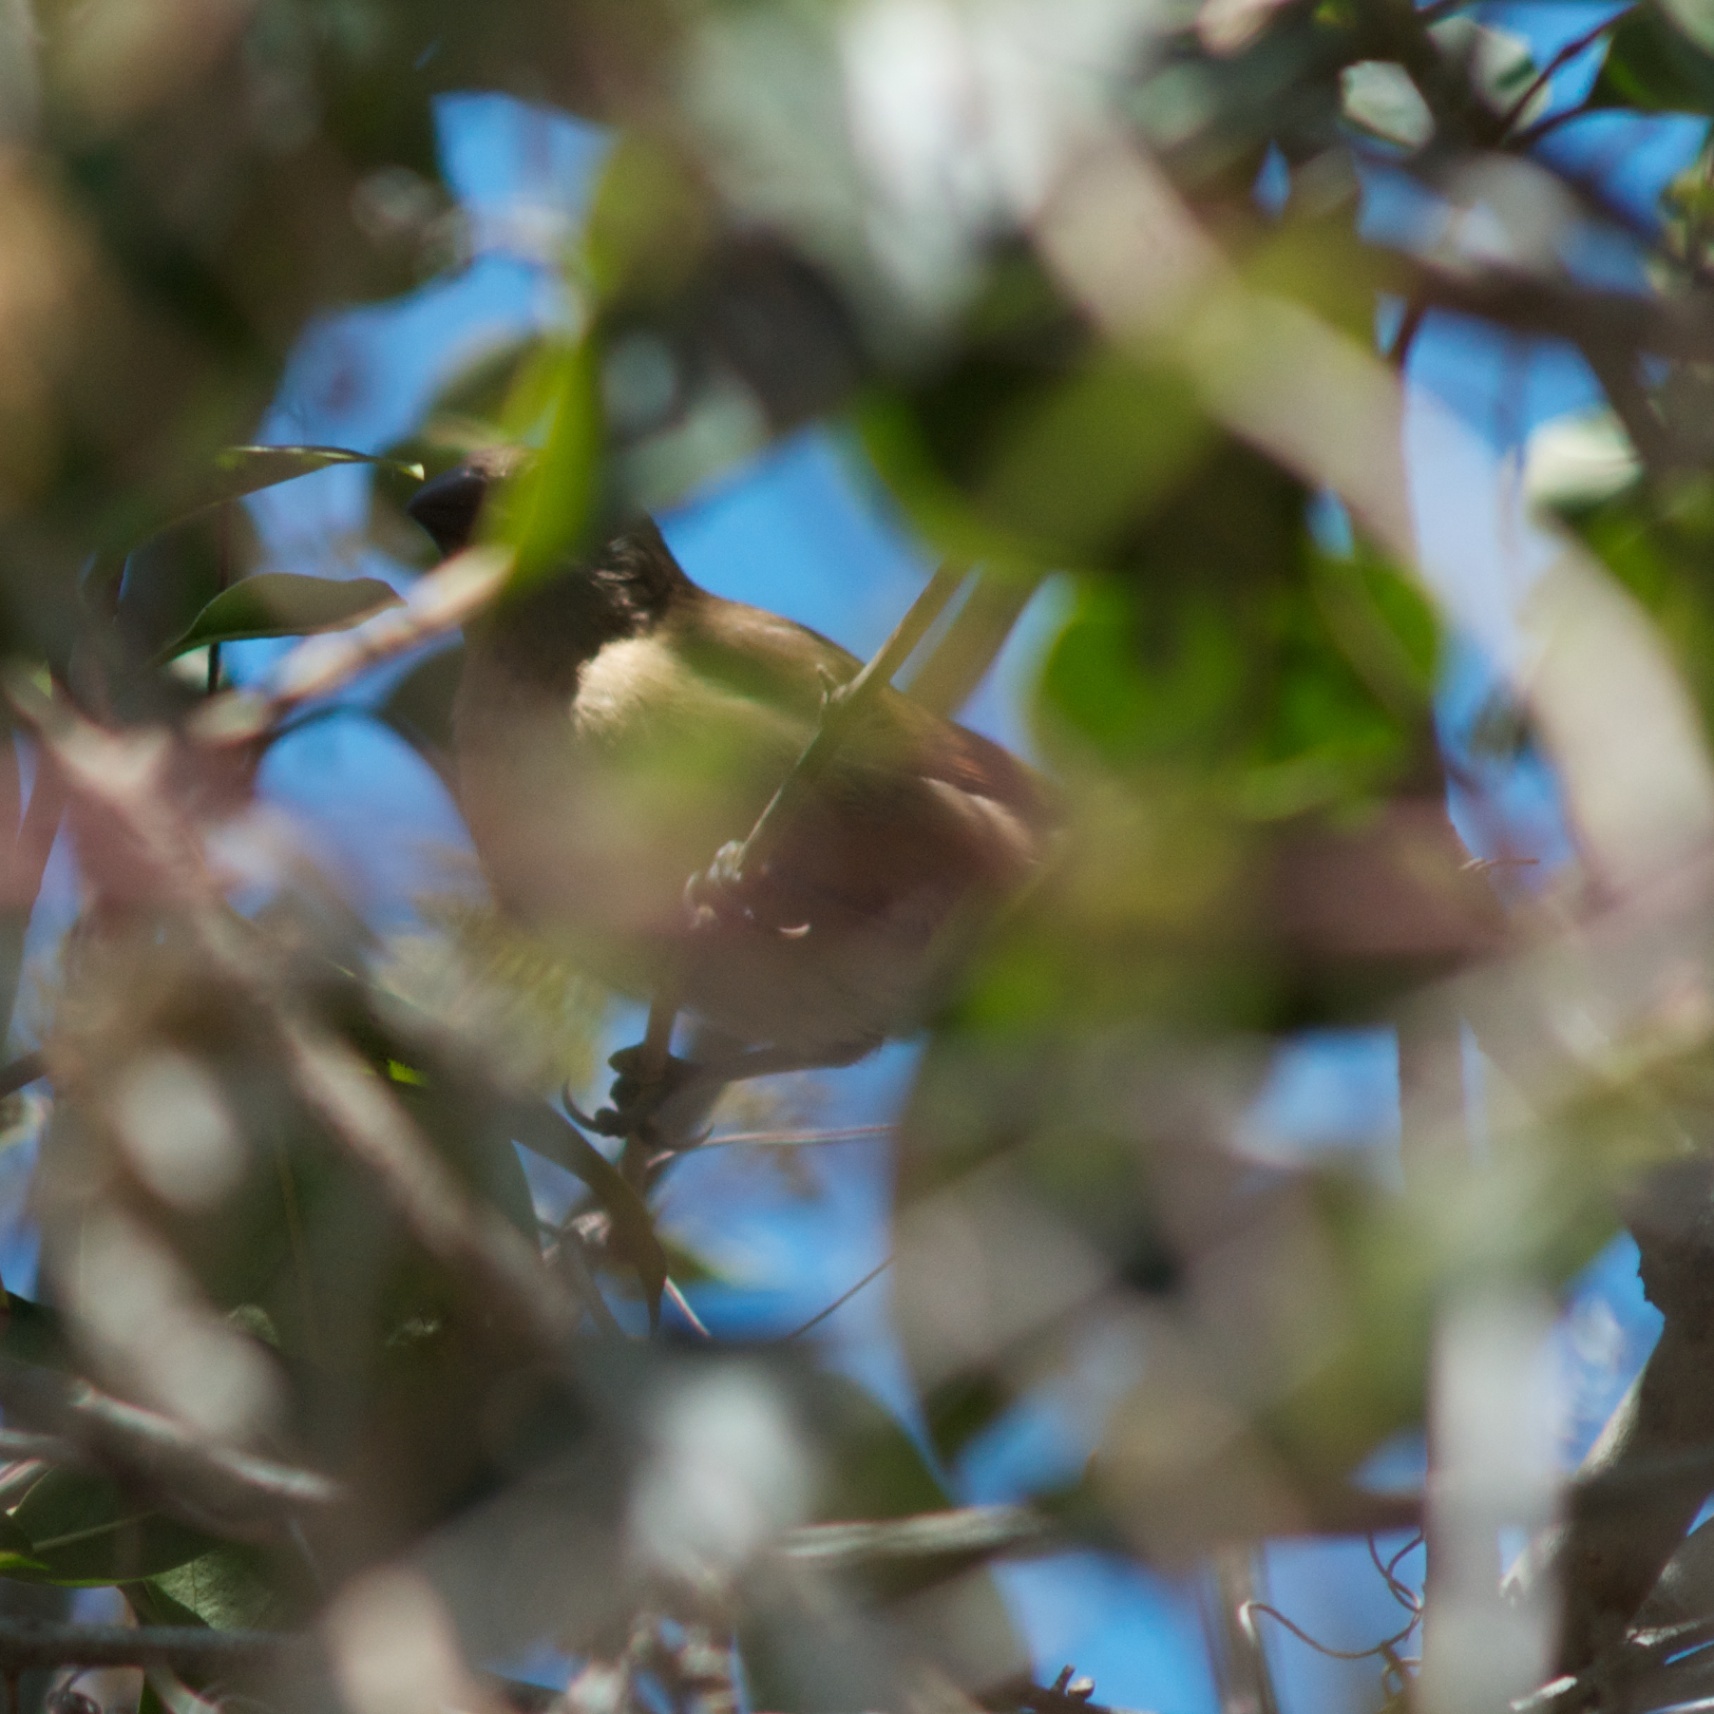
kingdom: Animalia
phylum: Chordata
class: Aves
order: Passeriformes
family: Estrildidae
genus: Lonchura
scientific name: Lonchura punctulata
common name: Scaly-breasted munia
